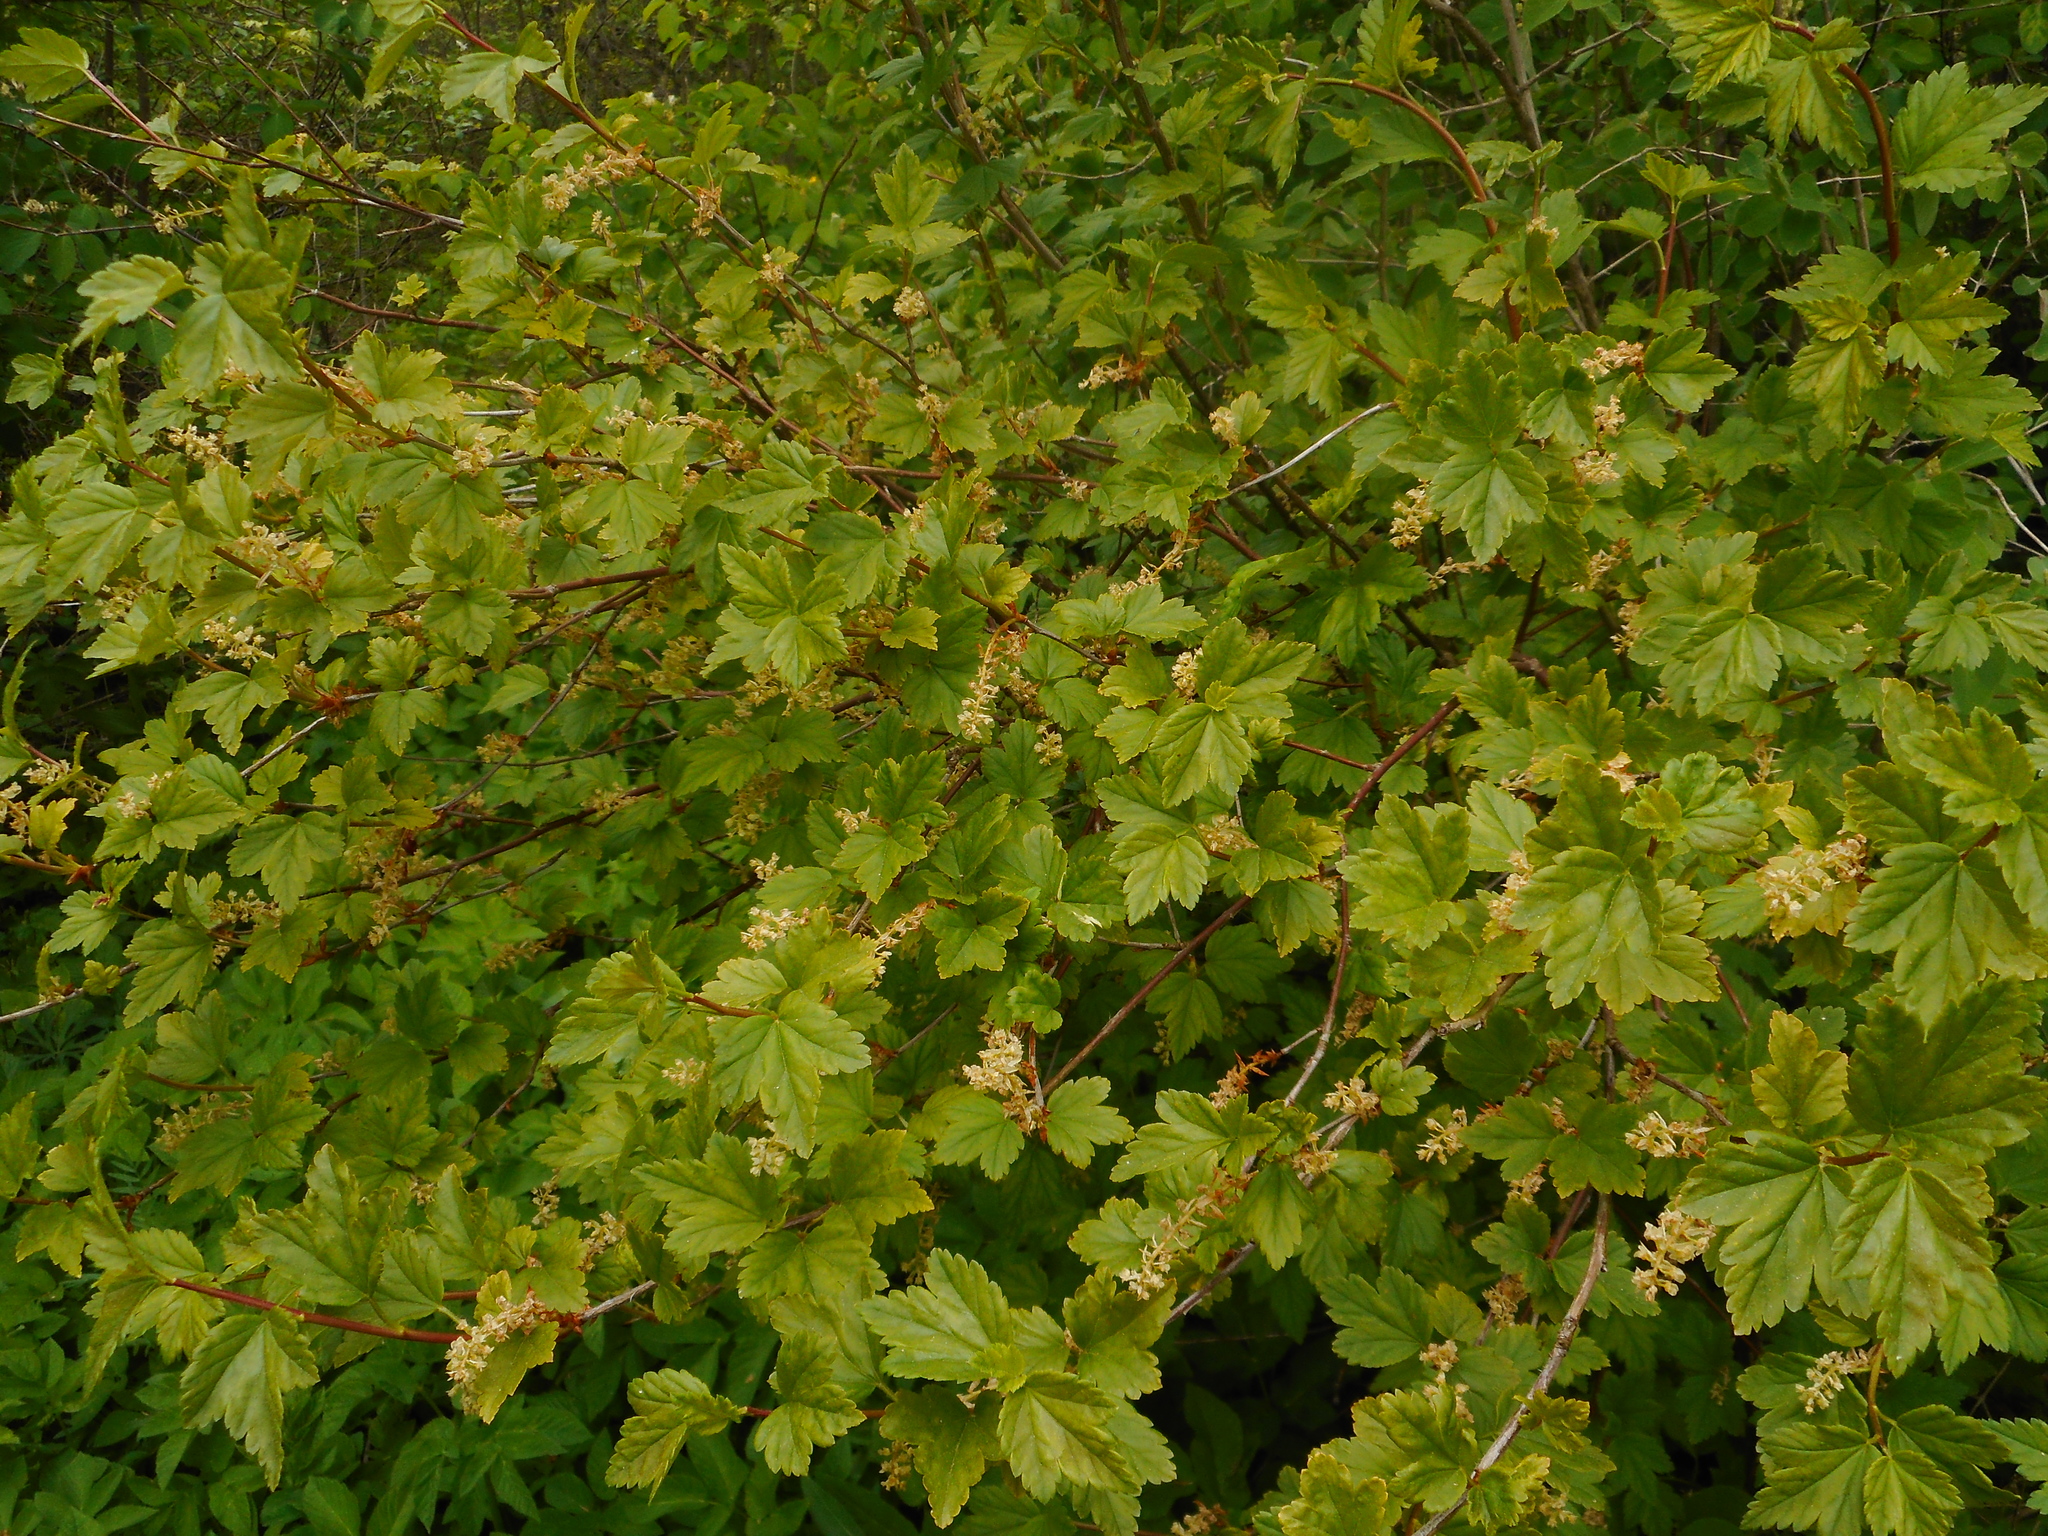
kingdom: Plantae
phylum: Tracheophyta
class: Magnoliopsida
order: Saxifragales
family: Grossulariaceae
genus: Ribes
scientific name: Ribes alpinum
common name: Alpine currant
